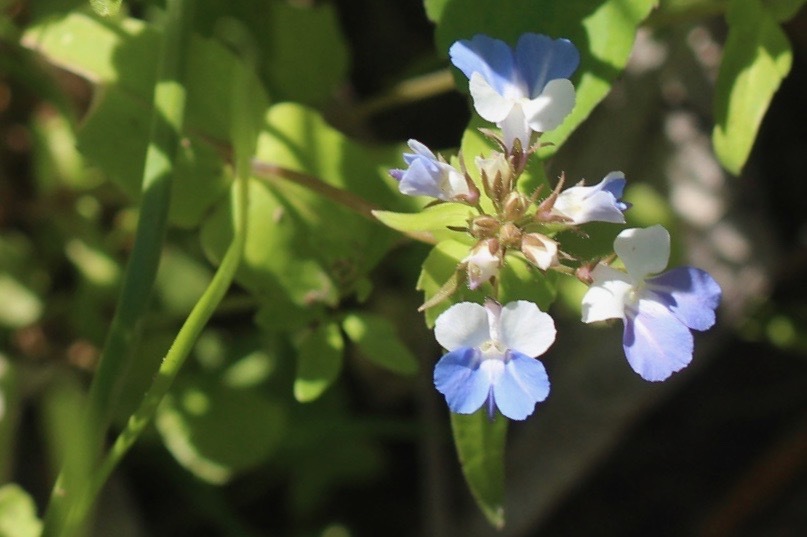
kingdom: Plantae
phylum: Tracheophyta
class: Magnoliopsida
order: Lamiales
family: Plantaginaceae
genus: Collinsia
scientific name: Collinsia verna
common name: Broad-leaved collinsia
